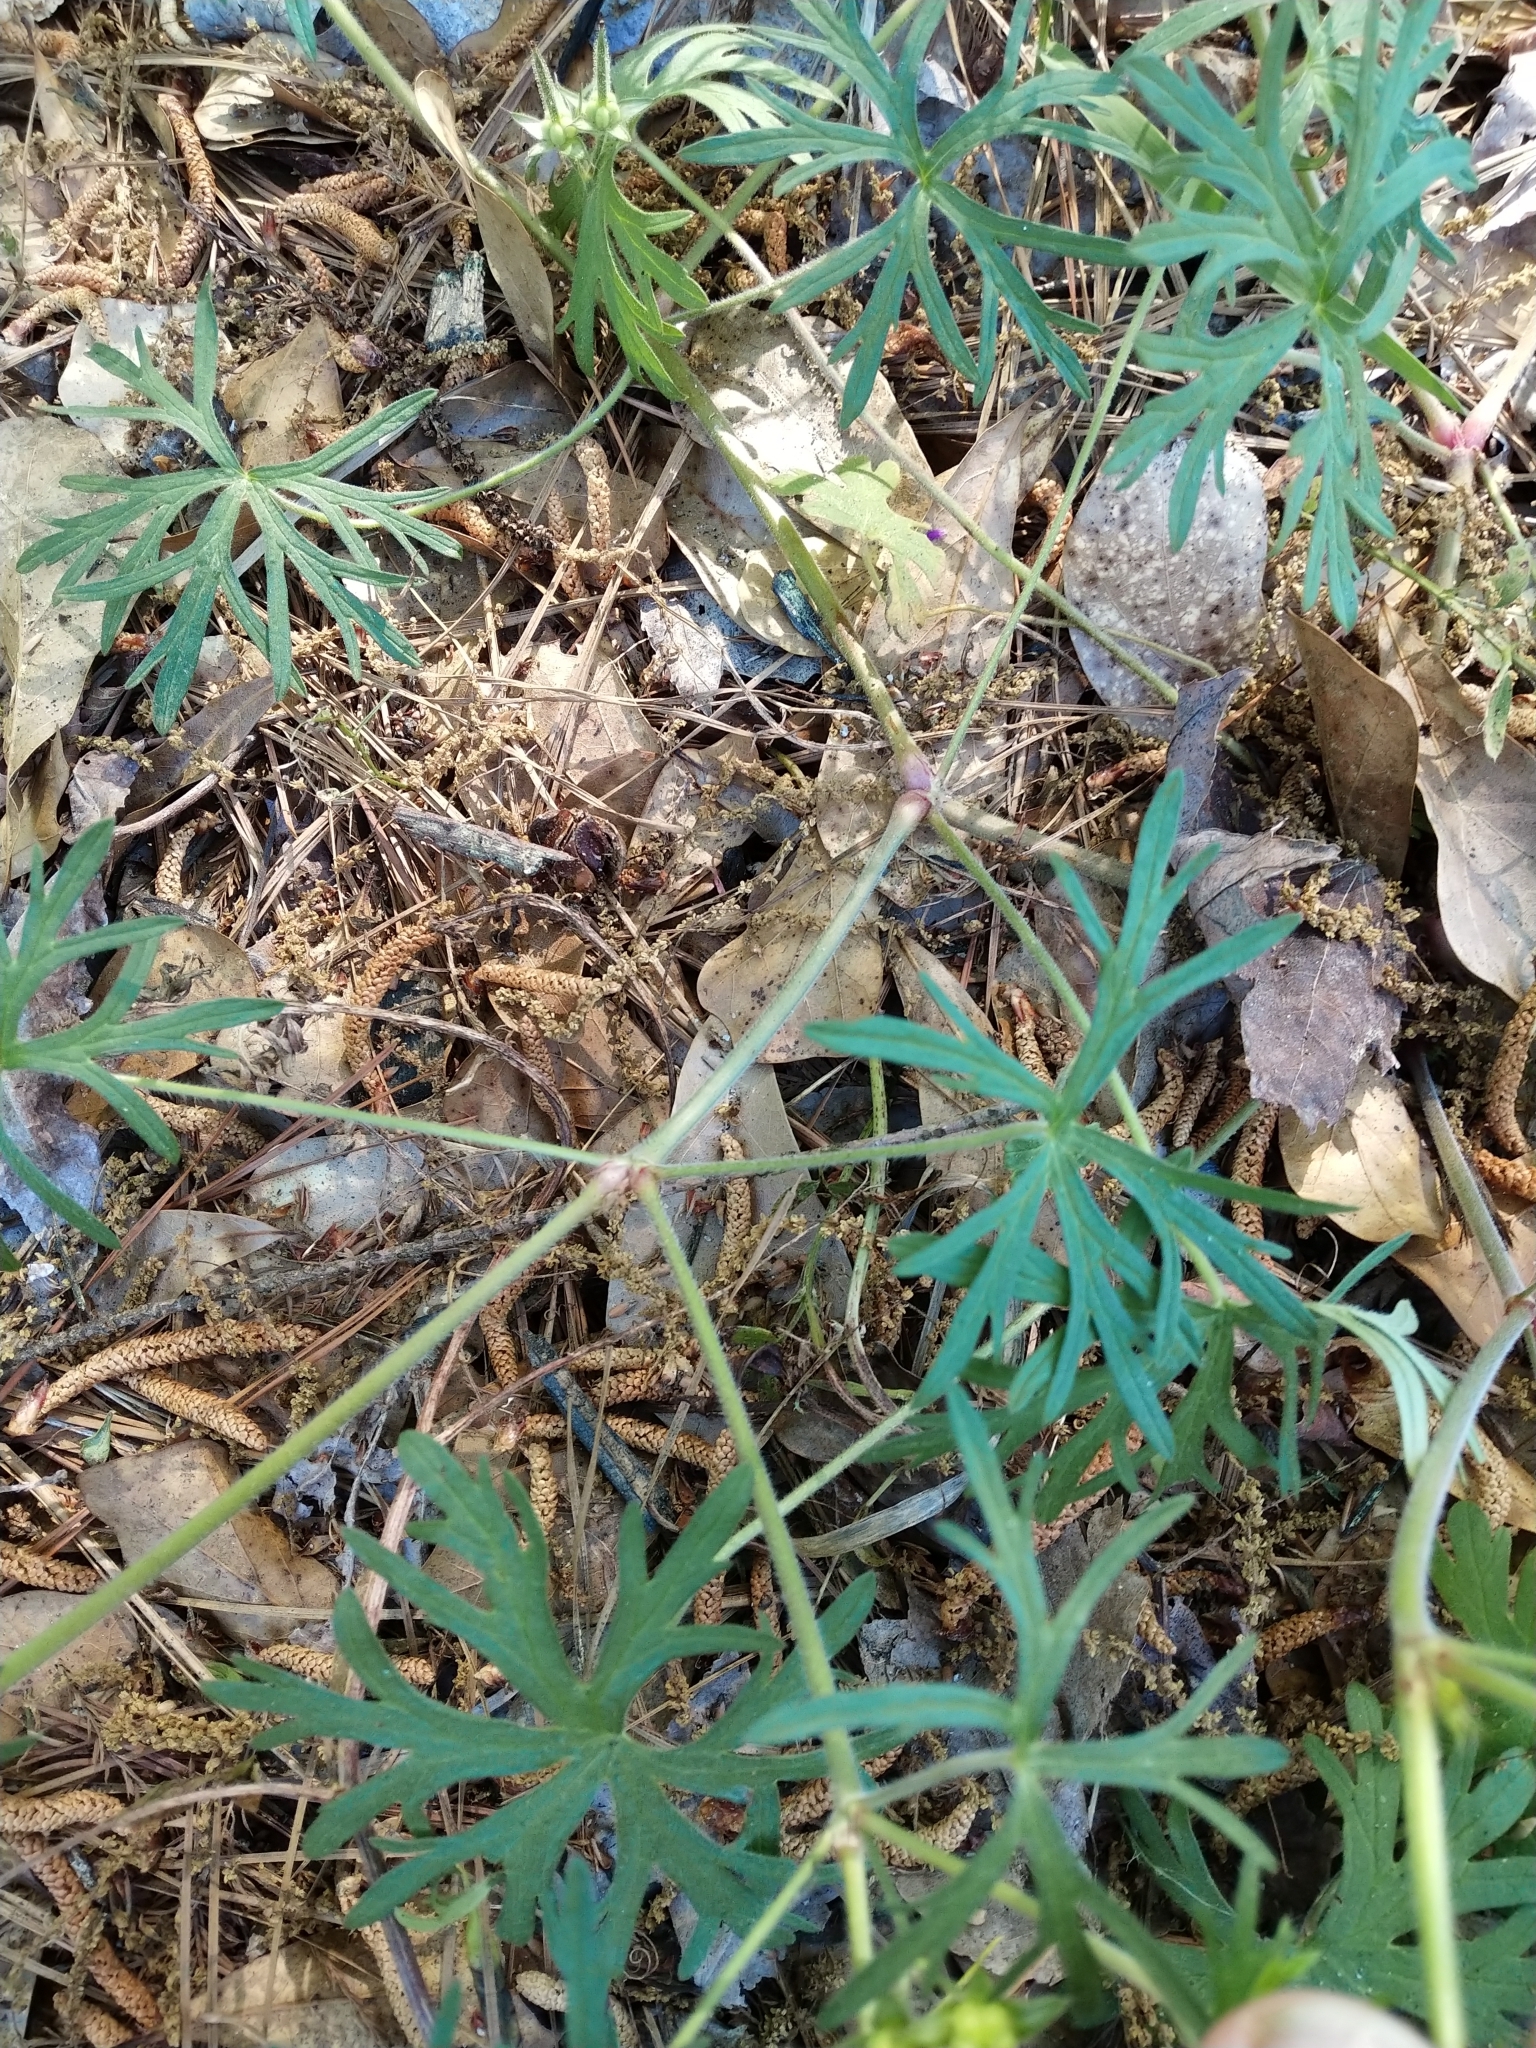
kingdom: Plantae
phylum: Tracheophyta
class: Magnoliopsida
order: Geraniales
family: Geraniaceae
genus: Geranium
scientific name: Geranium dissectum
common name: Cut-leaved crane's-bill
